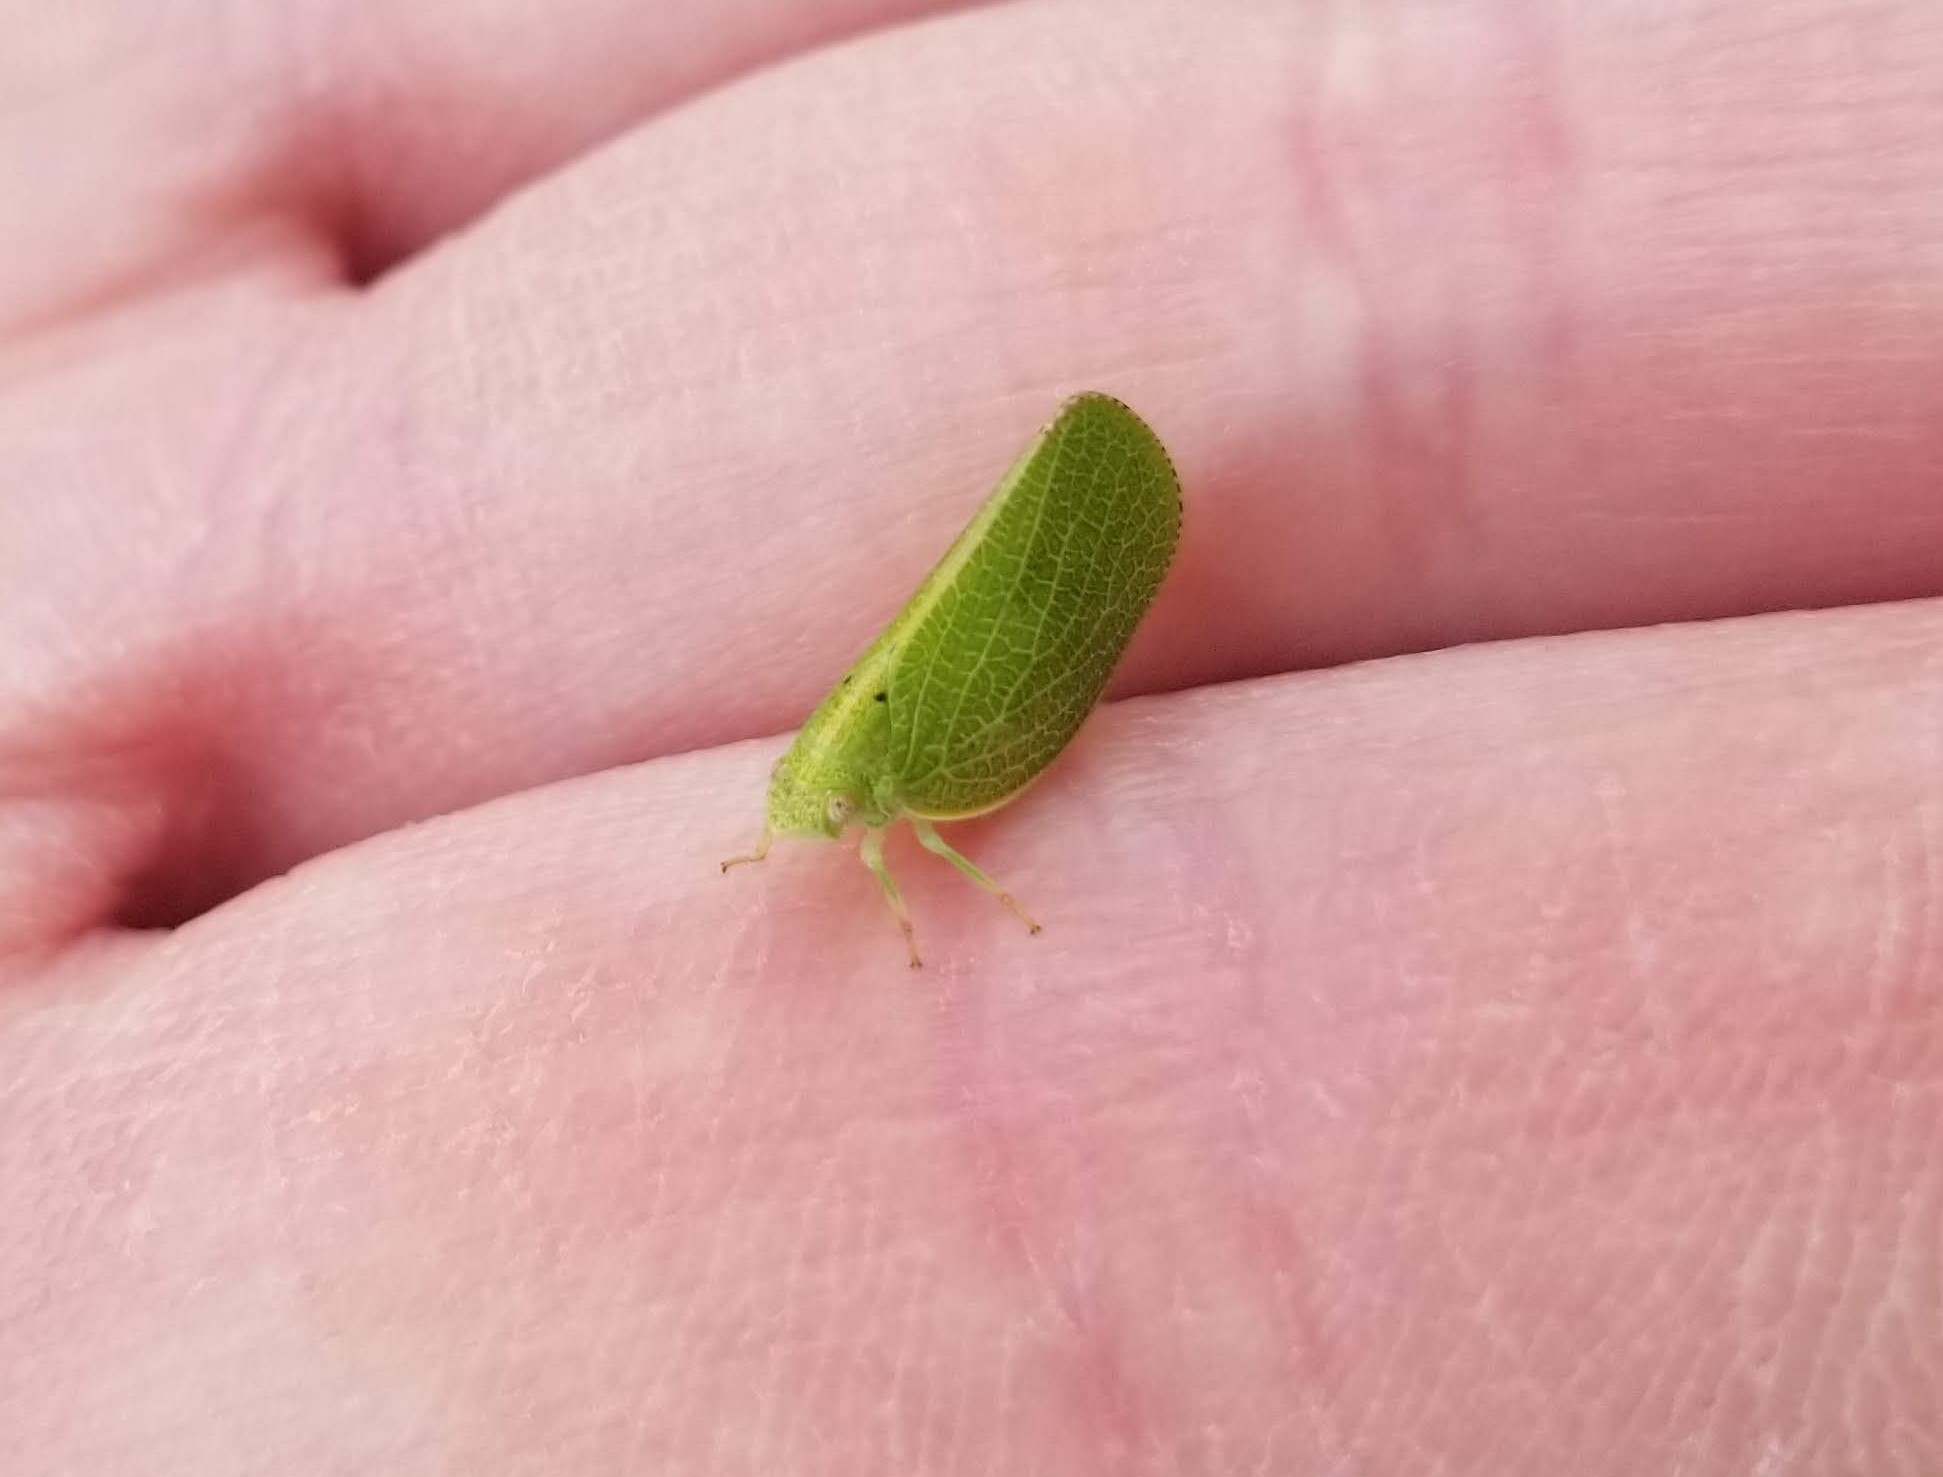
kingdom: Animalia
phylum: Arthropoda
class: Insecta
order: Hemiptera
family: Acanaloniidae
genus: Acanalonia
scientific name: Acanalonia conica
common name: Green cone-headed planthopper
